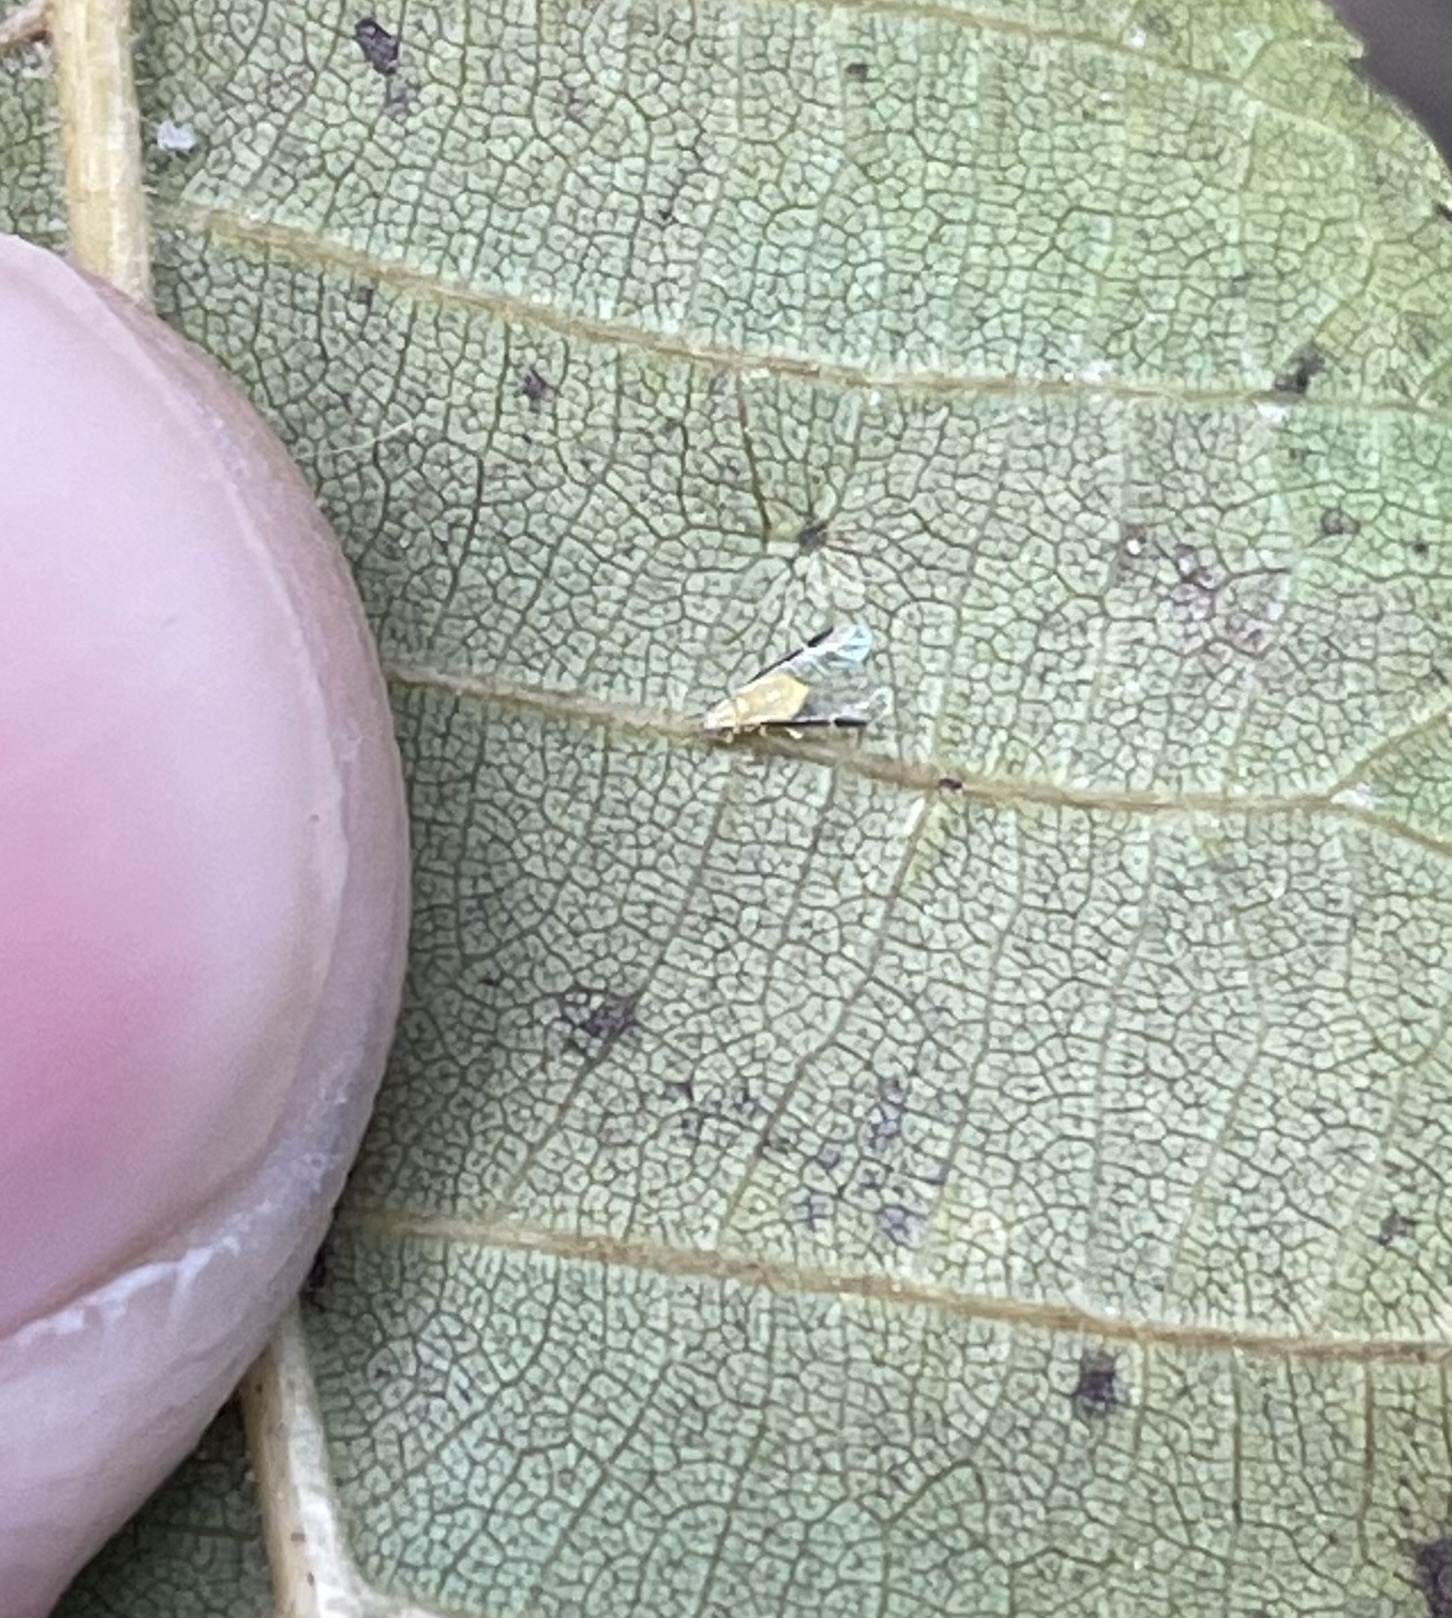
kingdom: Animalia
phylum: Arthropoda
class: Insecta
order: Hemiptera
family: Aphididae
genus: Monellia
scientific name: Monellia caryella
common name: Blackmargined aphid
